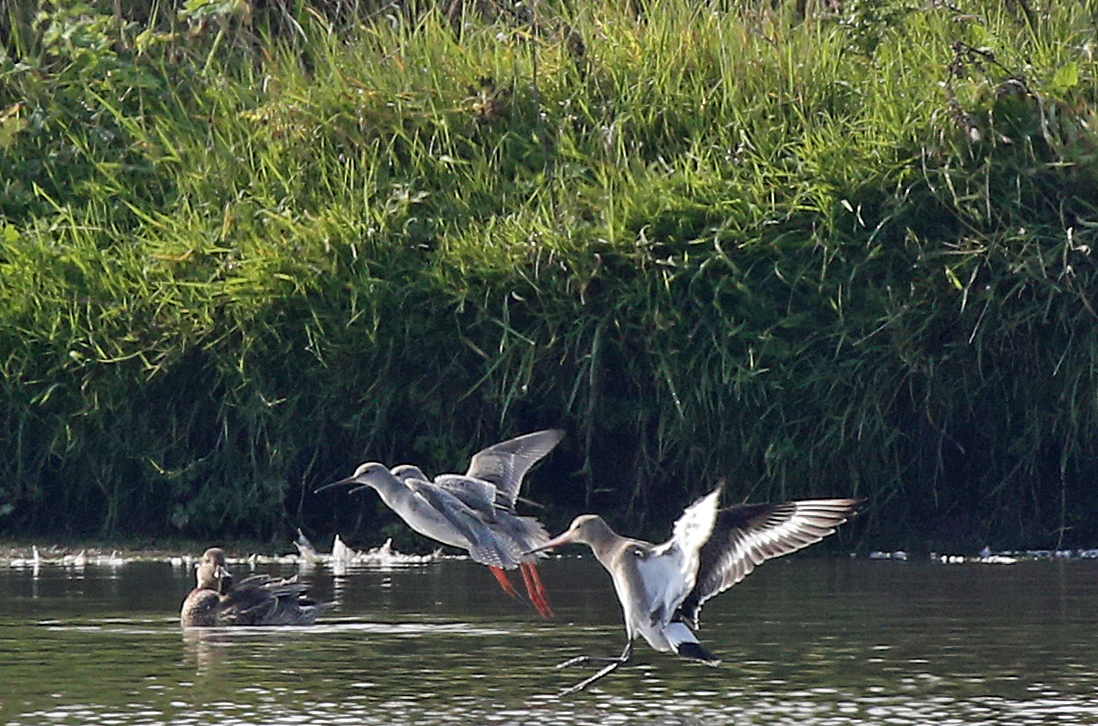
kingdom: Animalia
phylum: Chordata
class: Aves
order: Charadriiformes
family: Scolopacidae
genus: Tringa
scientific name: Tringa erythropus
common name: Spotted redshank
